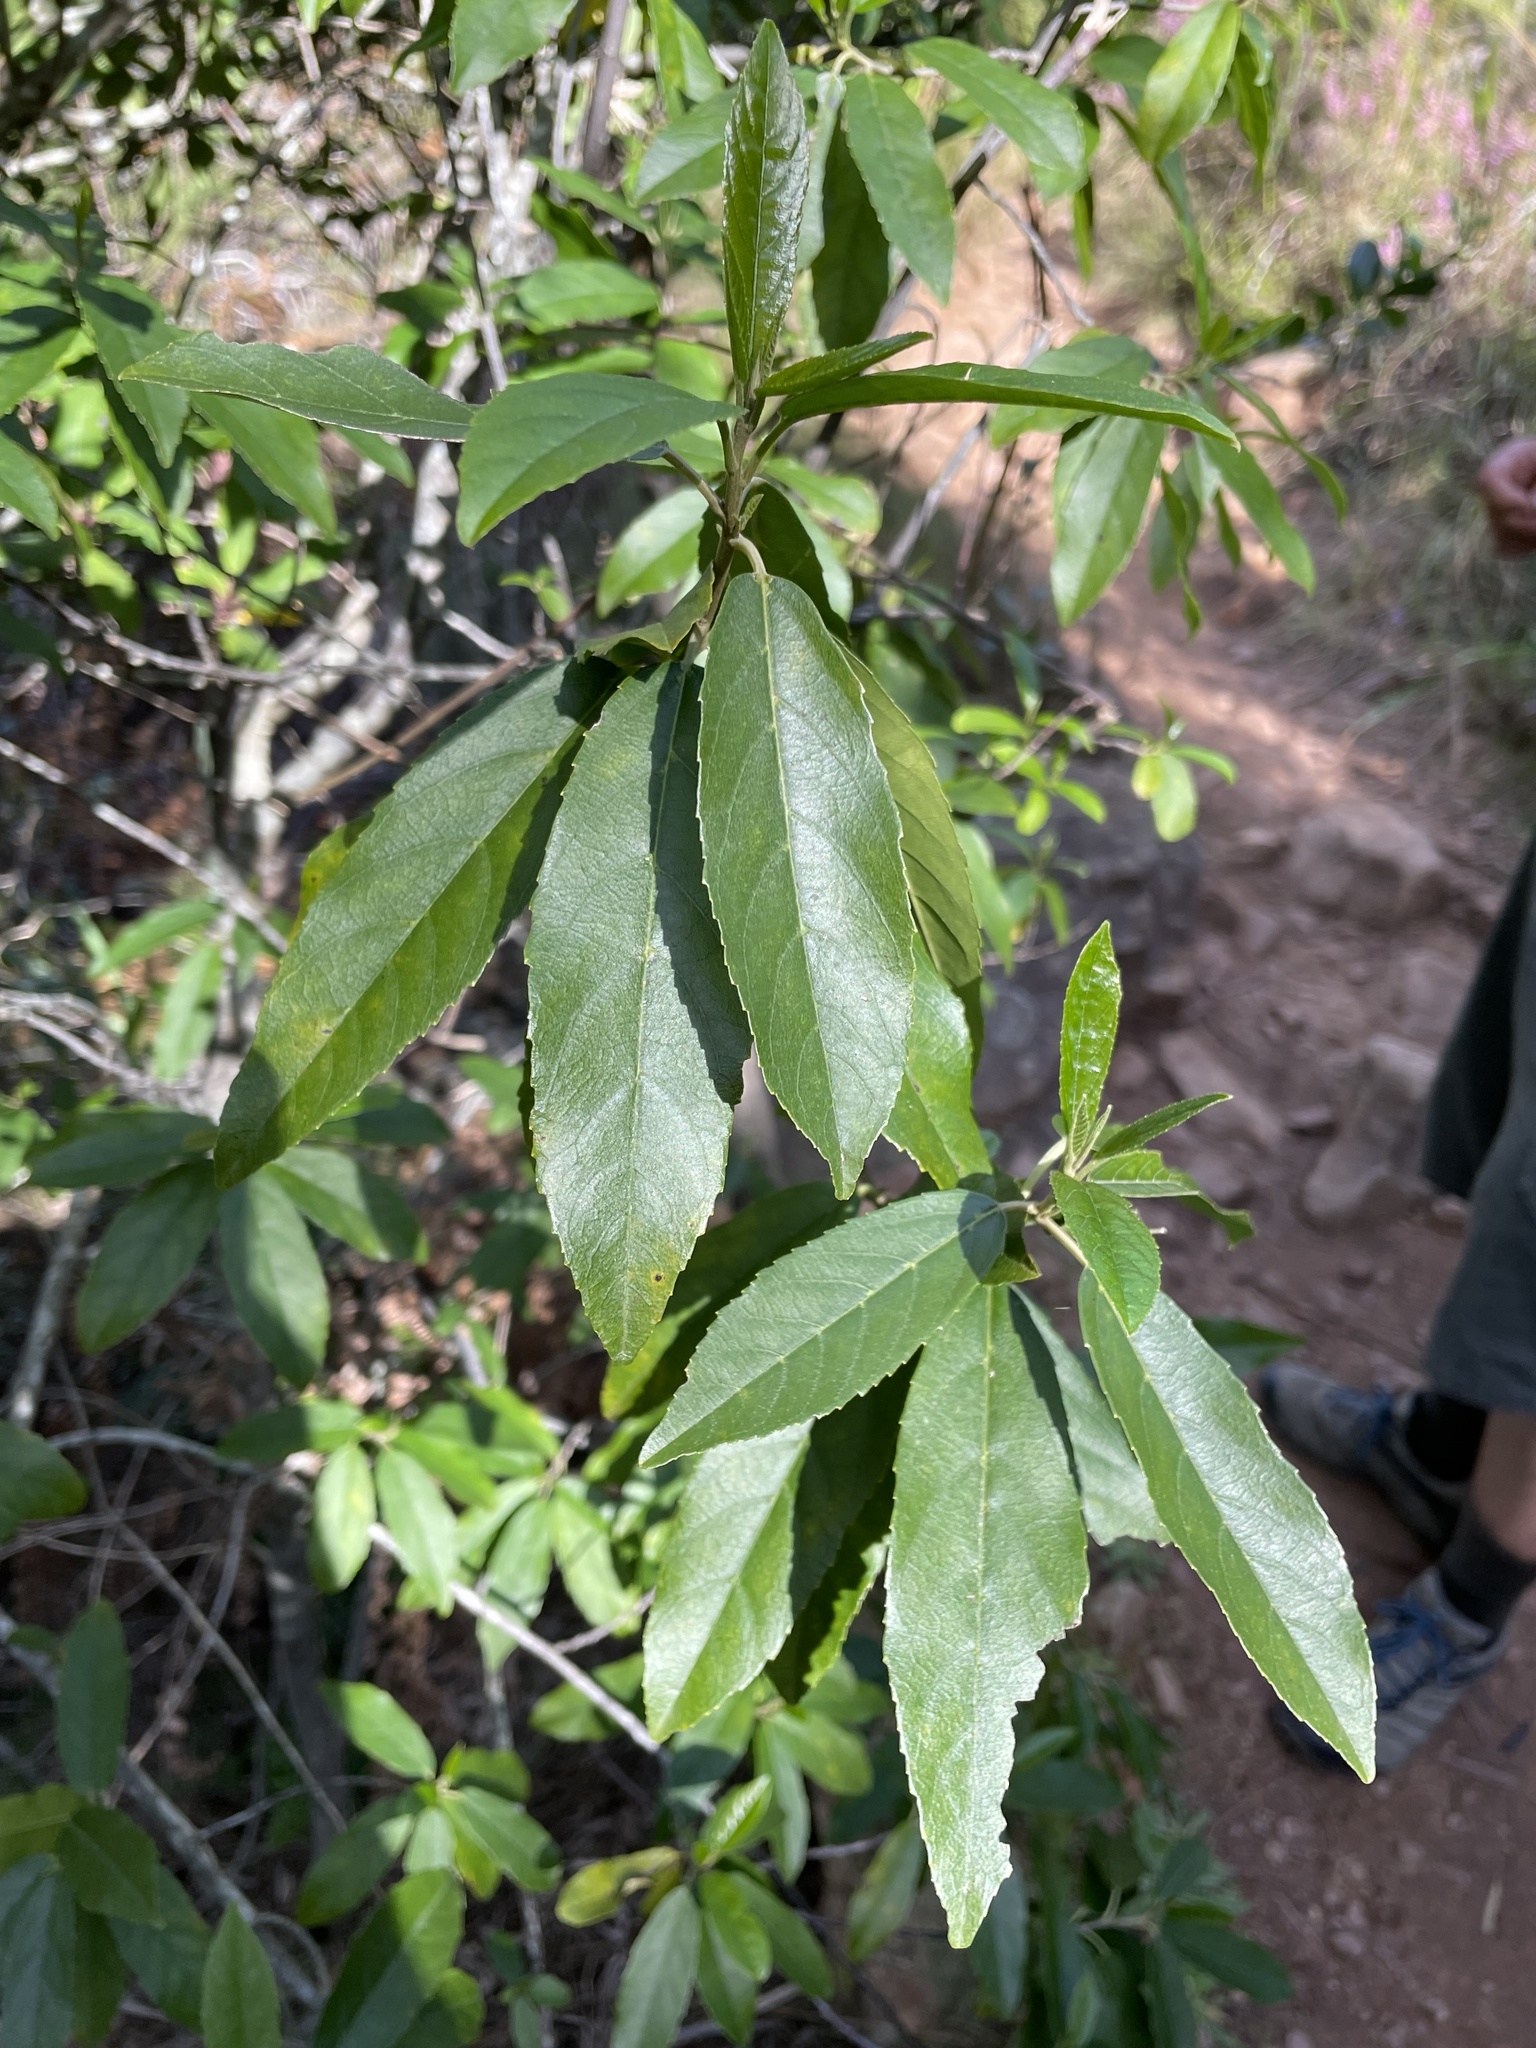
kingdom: Plantae
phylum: Tracheophyta
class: Magnoliopsida
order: Malpighiales
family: Achariaceae
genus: Kiggelaria
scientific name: Kiggelaria africana
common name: Wild peach
